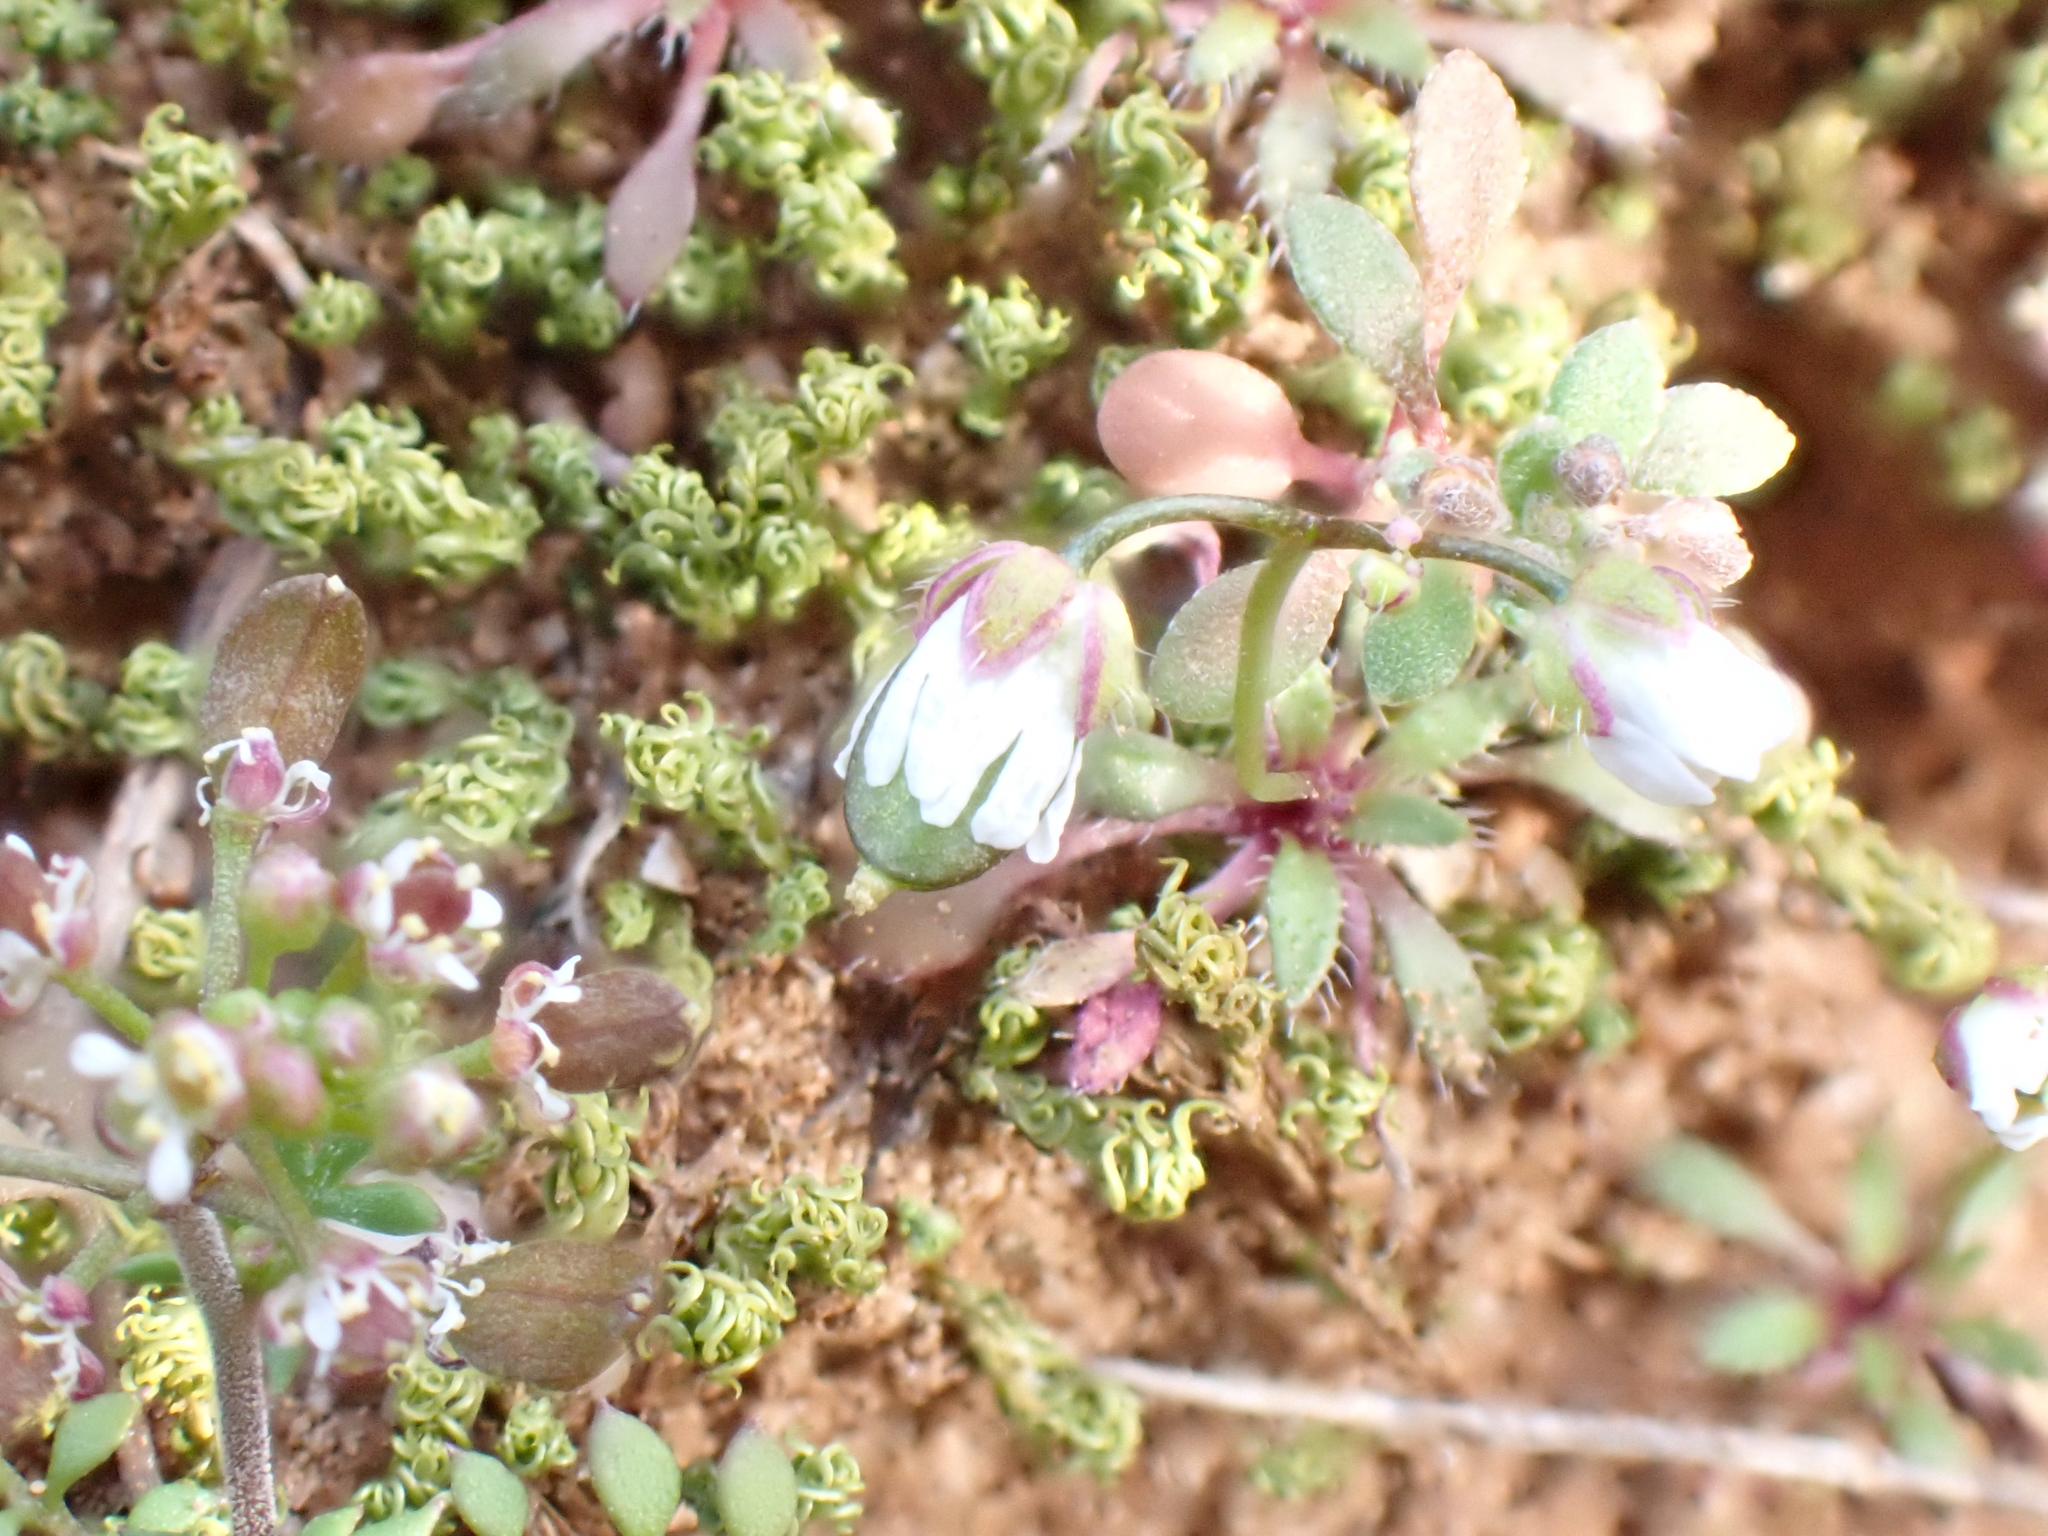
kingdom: Plantae
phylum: Tracheophyta
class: Magnoliopsida
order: Brassicales
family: Brassicaceae
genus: Draba
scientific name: Draba verna
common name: Spring draba
